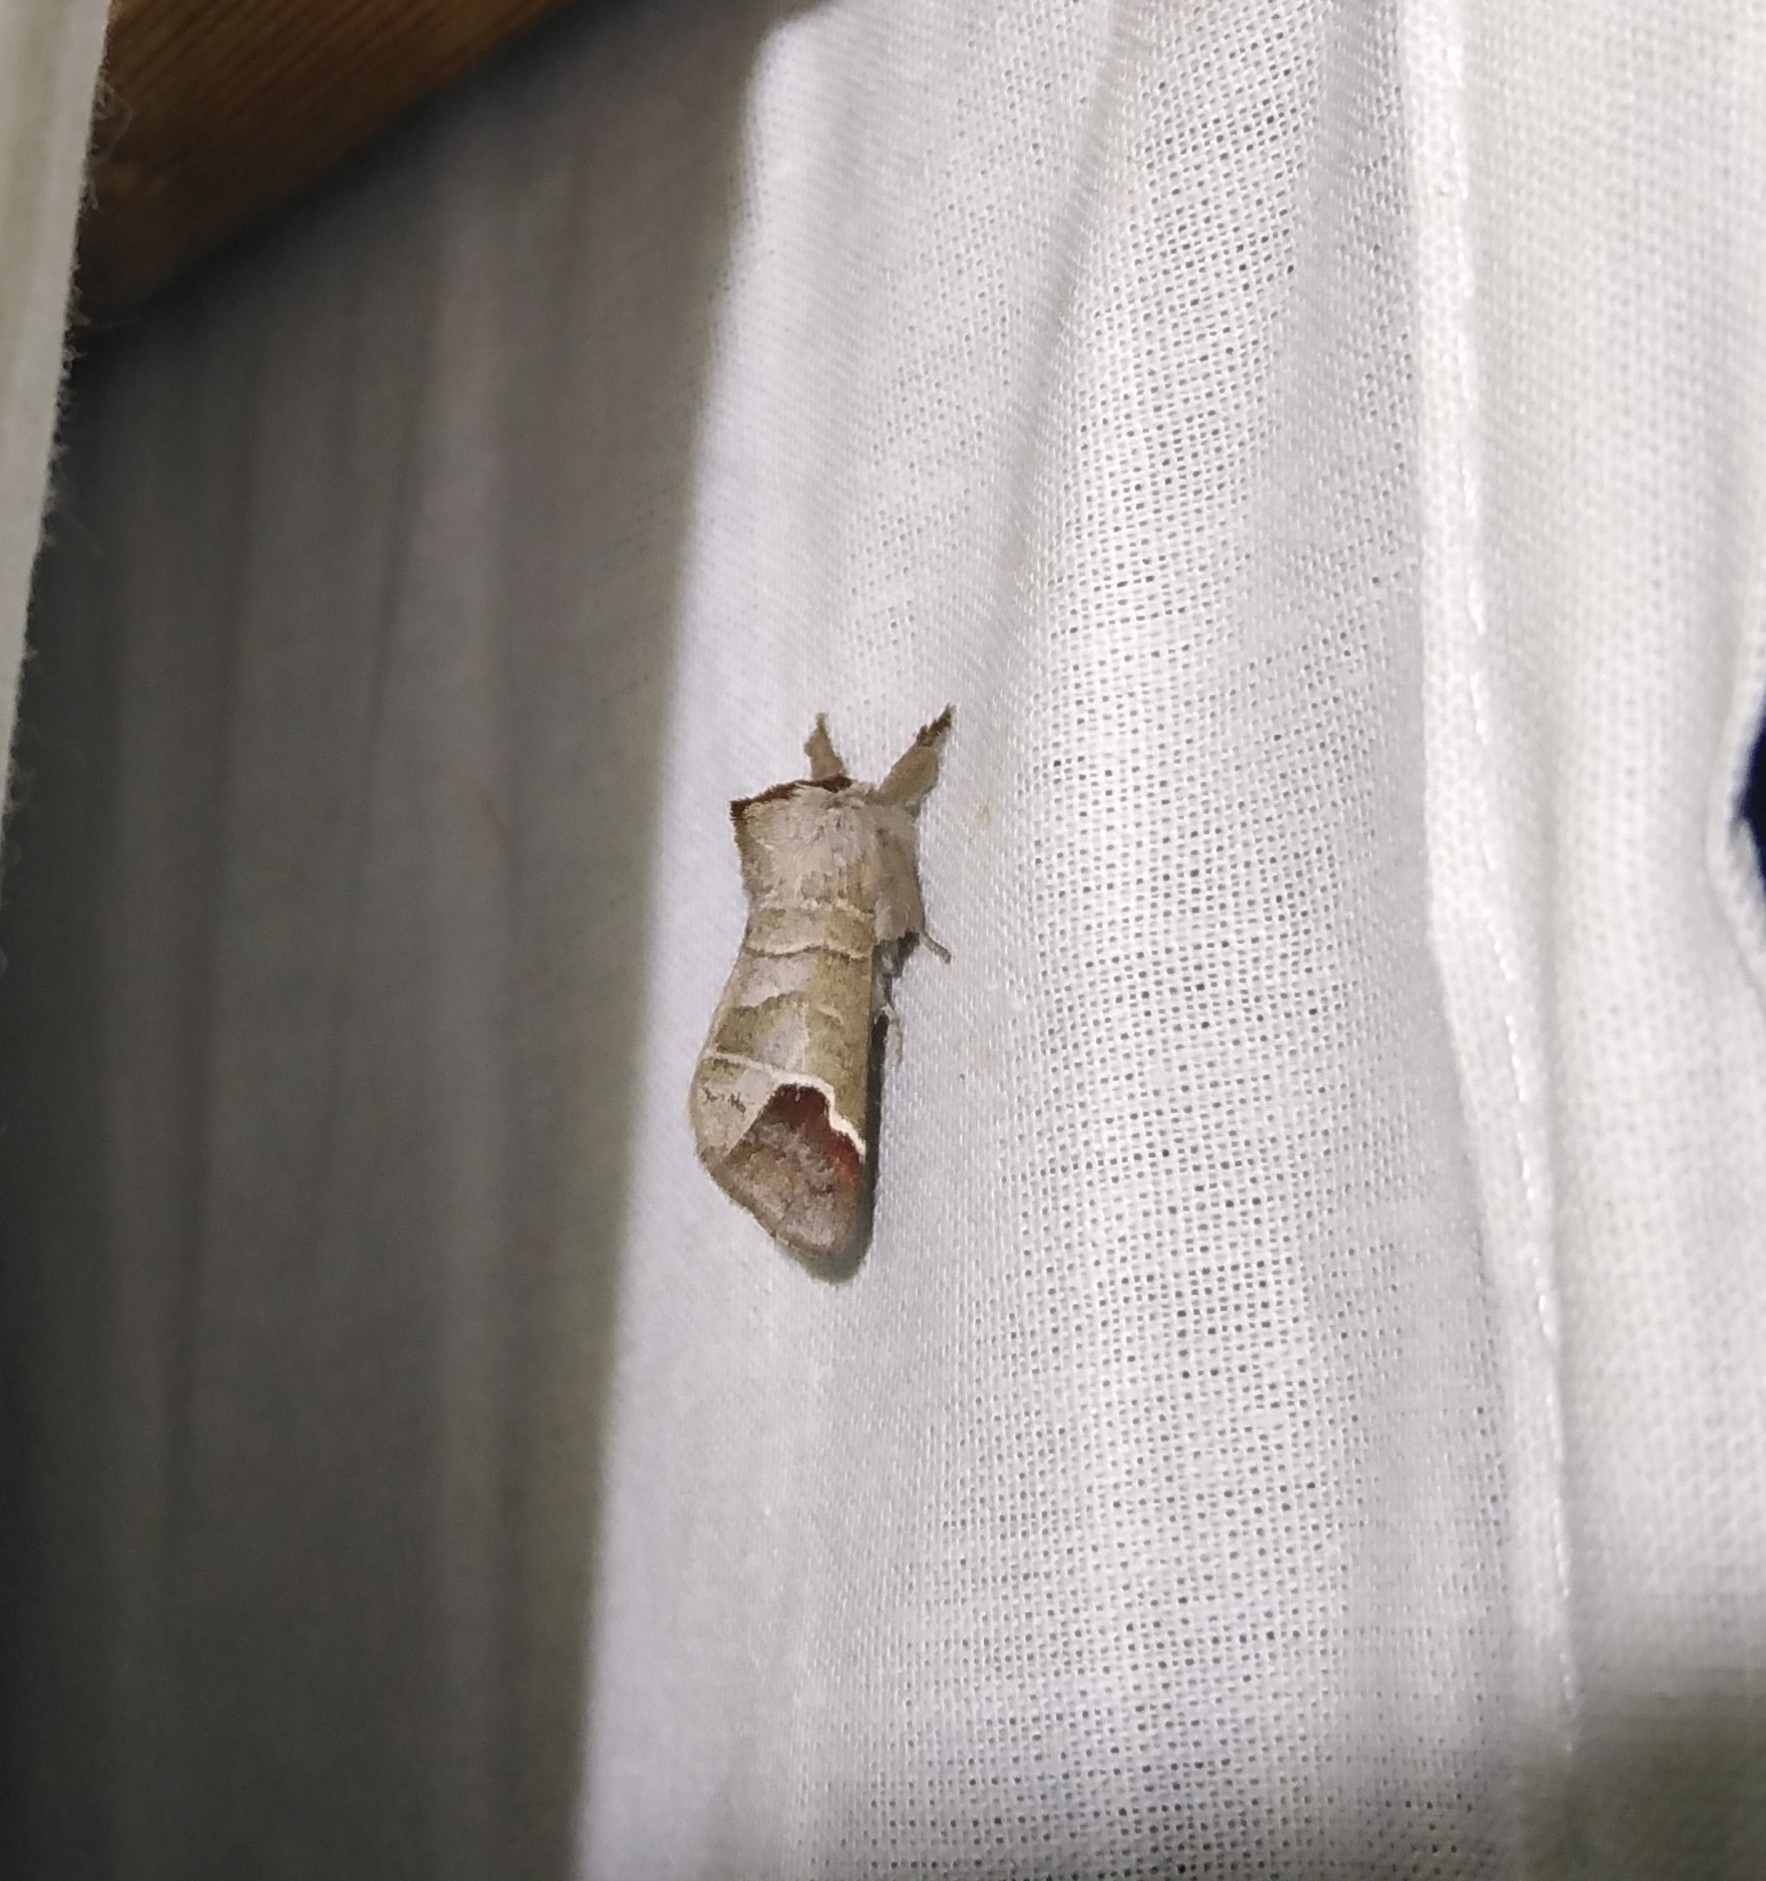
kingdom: Animalia
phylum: Arthropoda
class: Insecta
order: Lepidoptera
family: Notodontidae
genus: Clostera
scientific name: Clostera curtula
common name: Chocolate-tip
